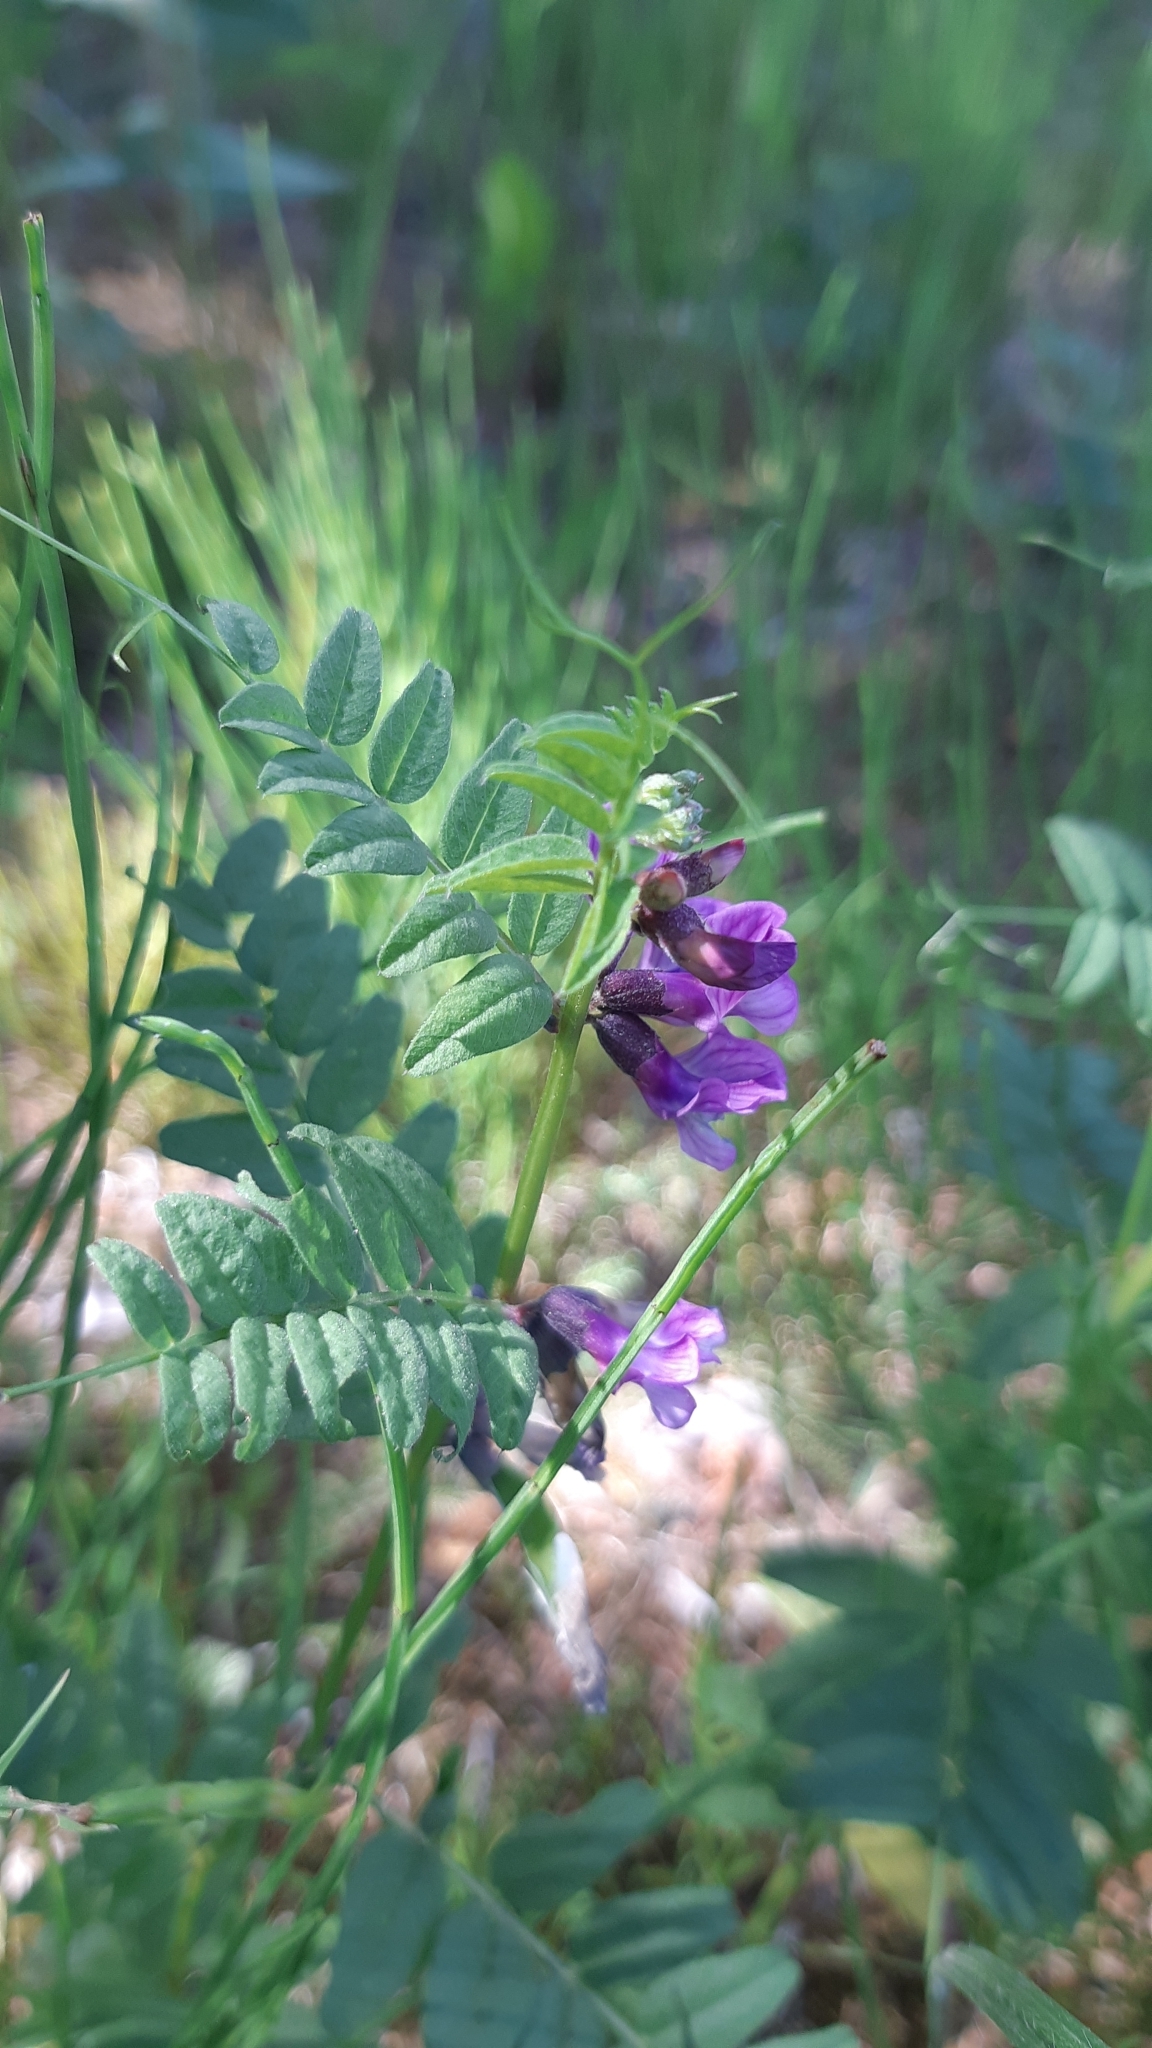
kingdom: Plantae
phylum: Tracheophyta
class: Magnoliopsida
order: Fabales
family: Fabaceae
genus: Vicia
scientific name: Vicia sepium
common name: Bush vetch
